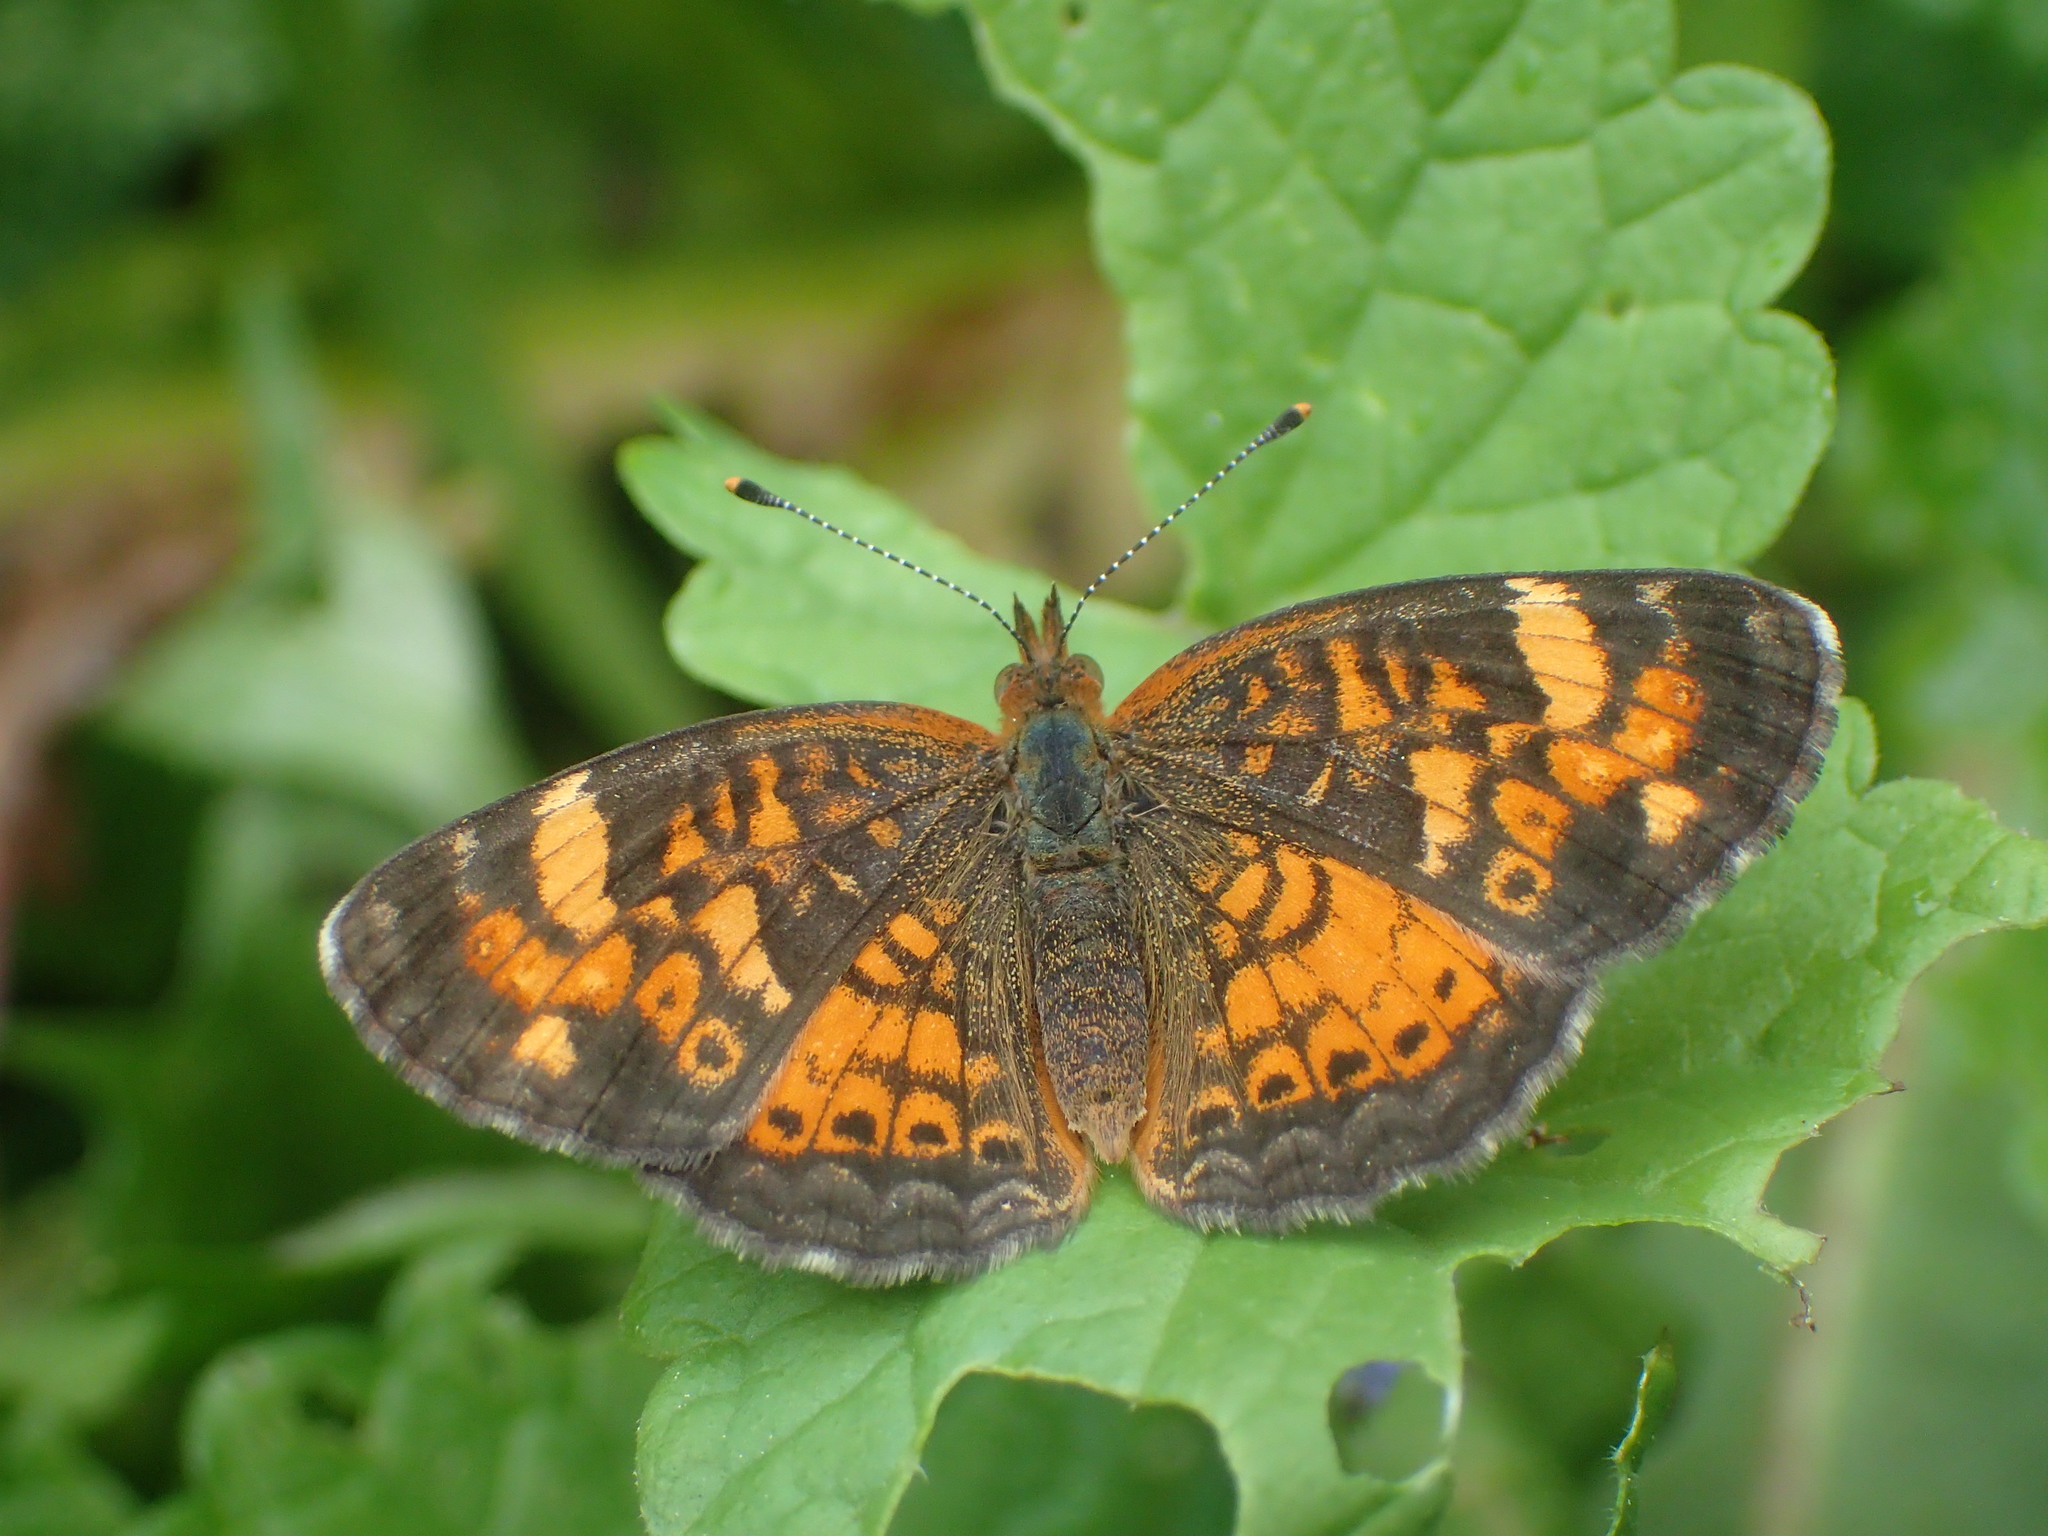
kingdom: Animalia
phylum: Arthropoda
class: Insecta
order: Lepidoptera
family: Nymphalidae
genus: Phyciodes
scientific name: Phyciodes tharos
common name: Pearl crescent
